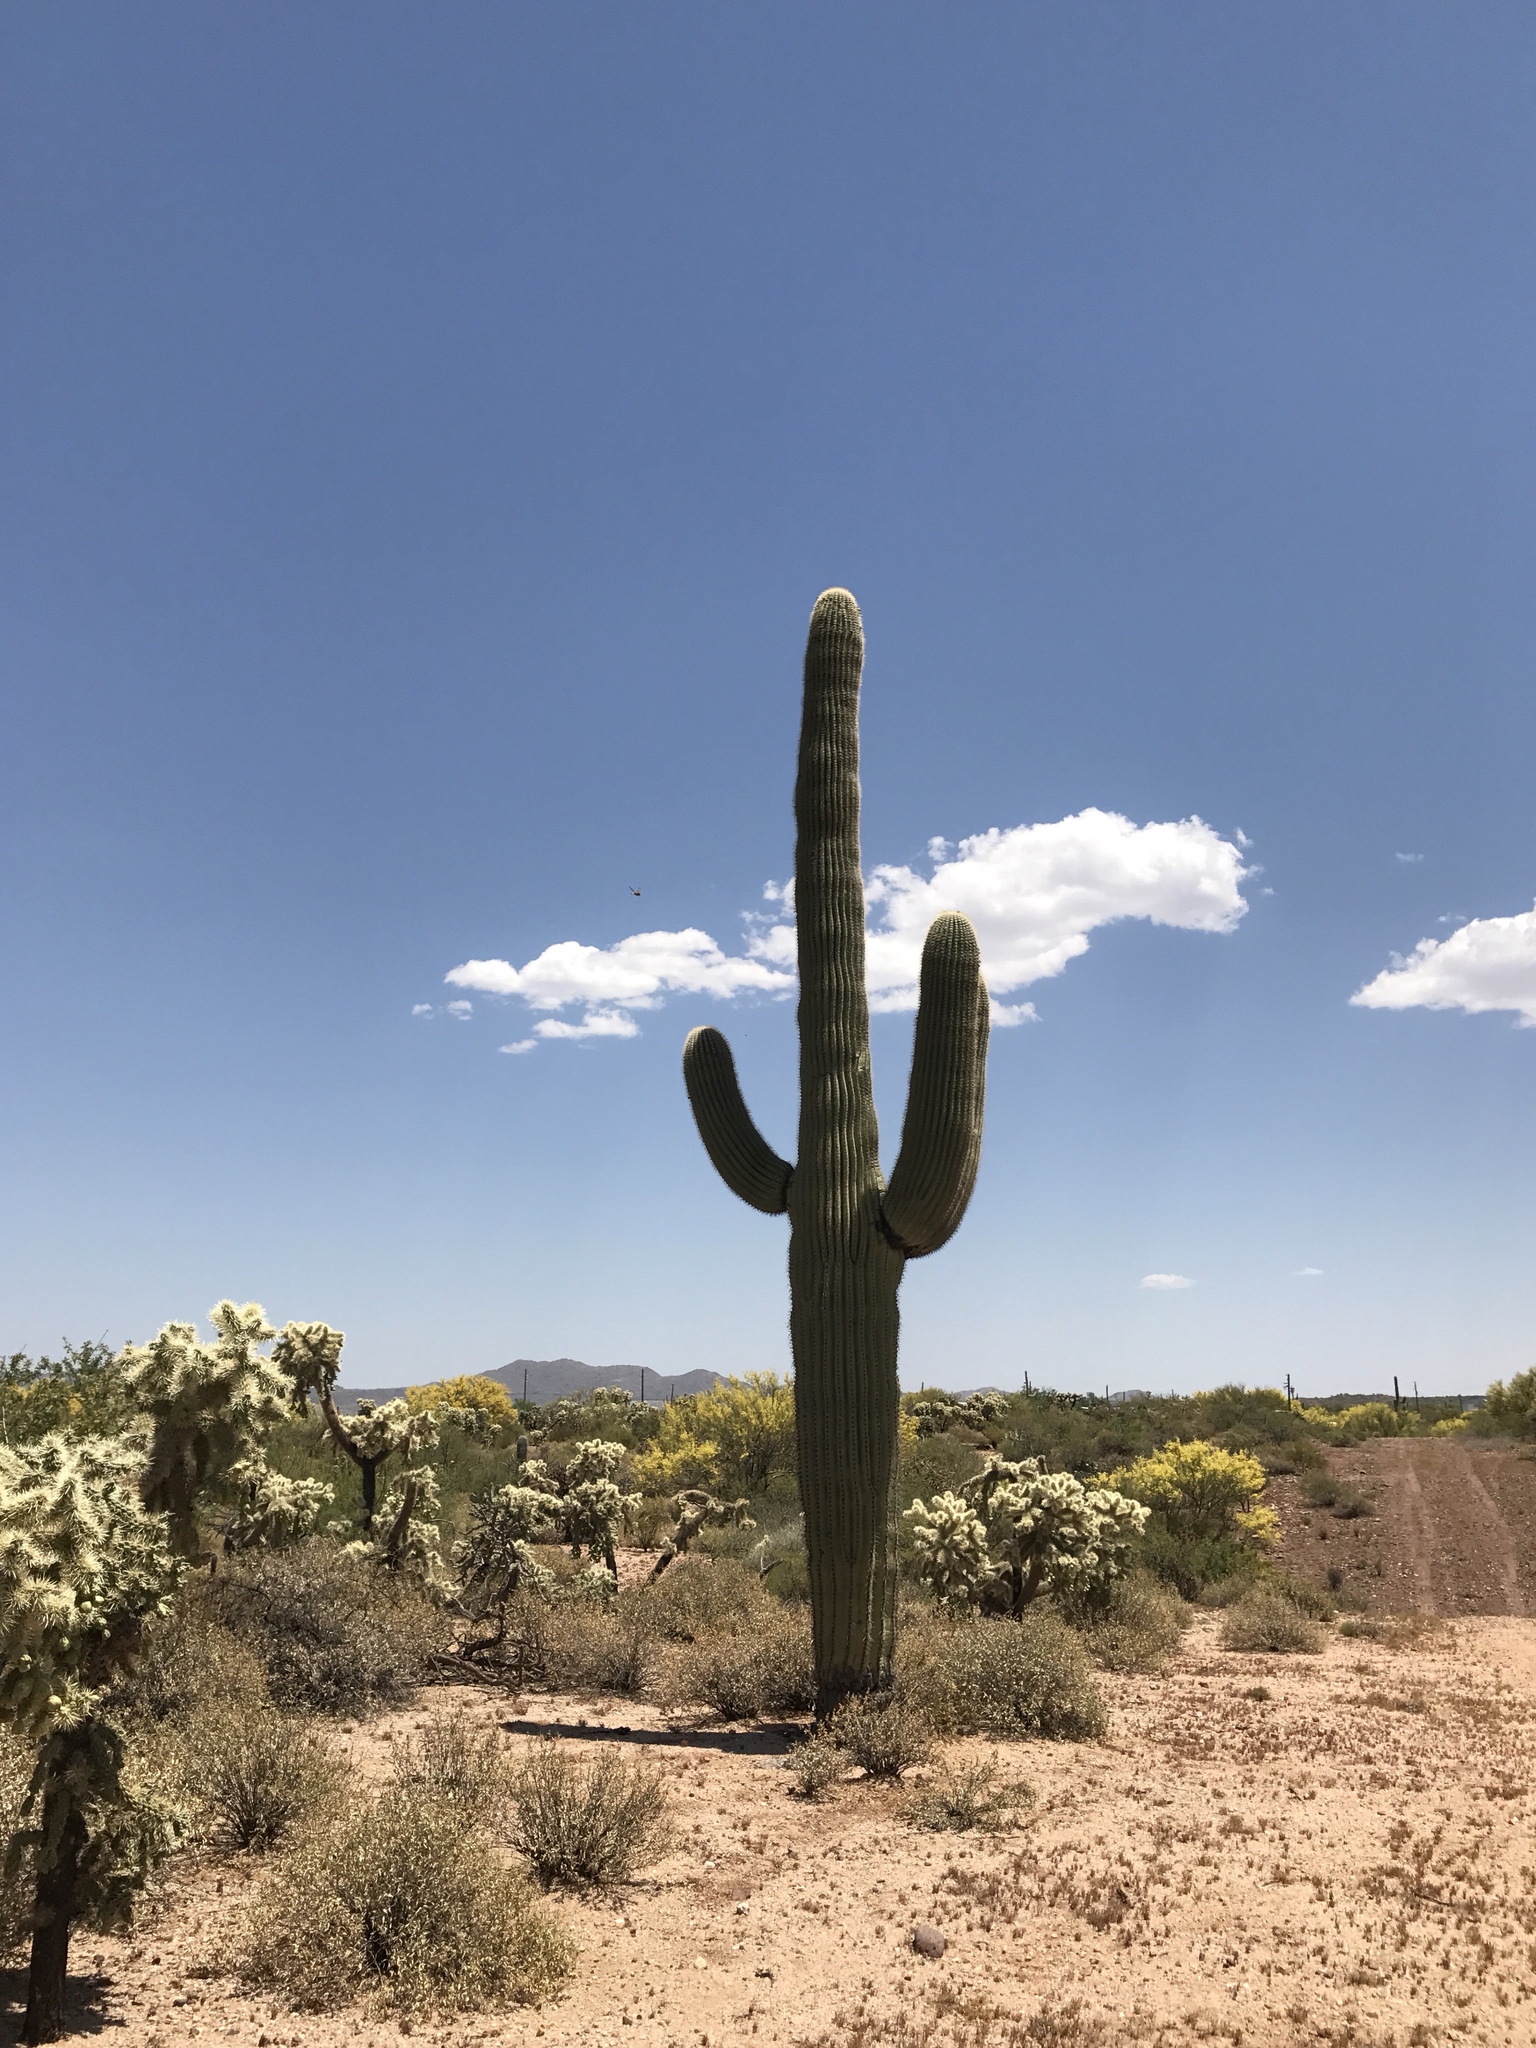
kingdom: Plantae
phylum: Tracheophyta
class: Magnoliopsida
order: Caryophyllales
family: Cactaceae
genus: Carnegiea
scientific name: Carnegiea gigantea
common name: Saguaro
